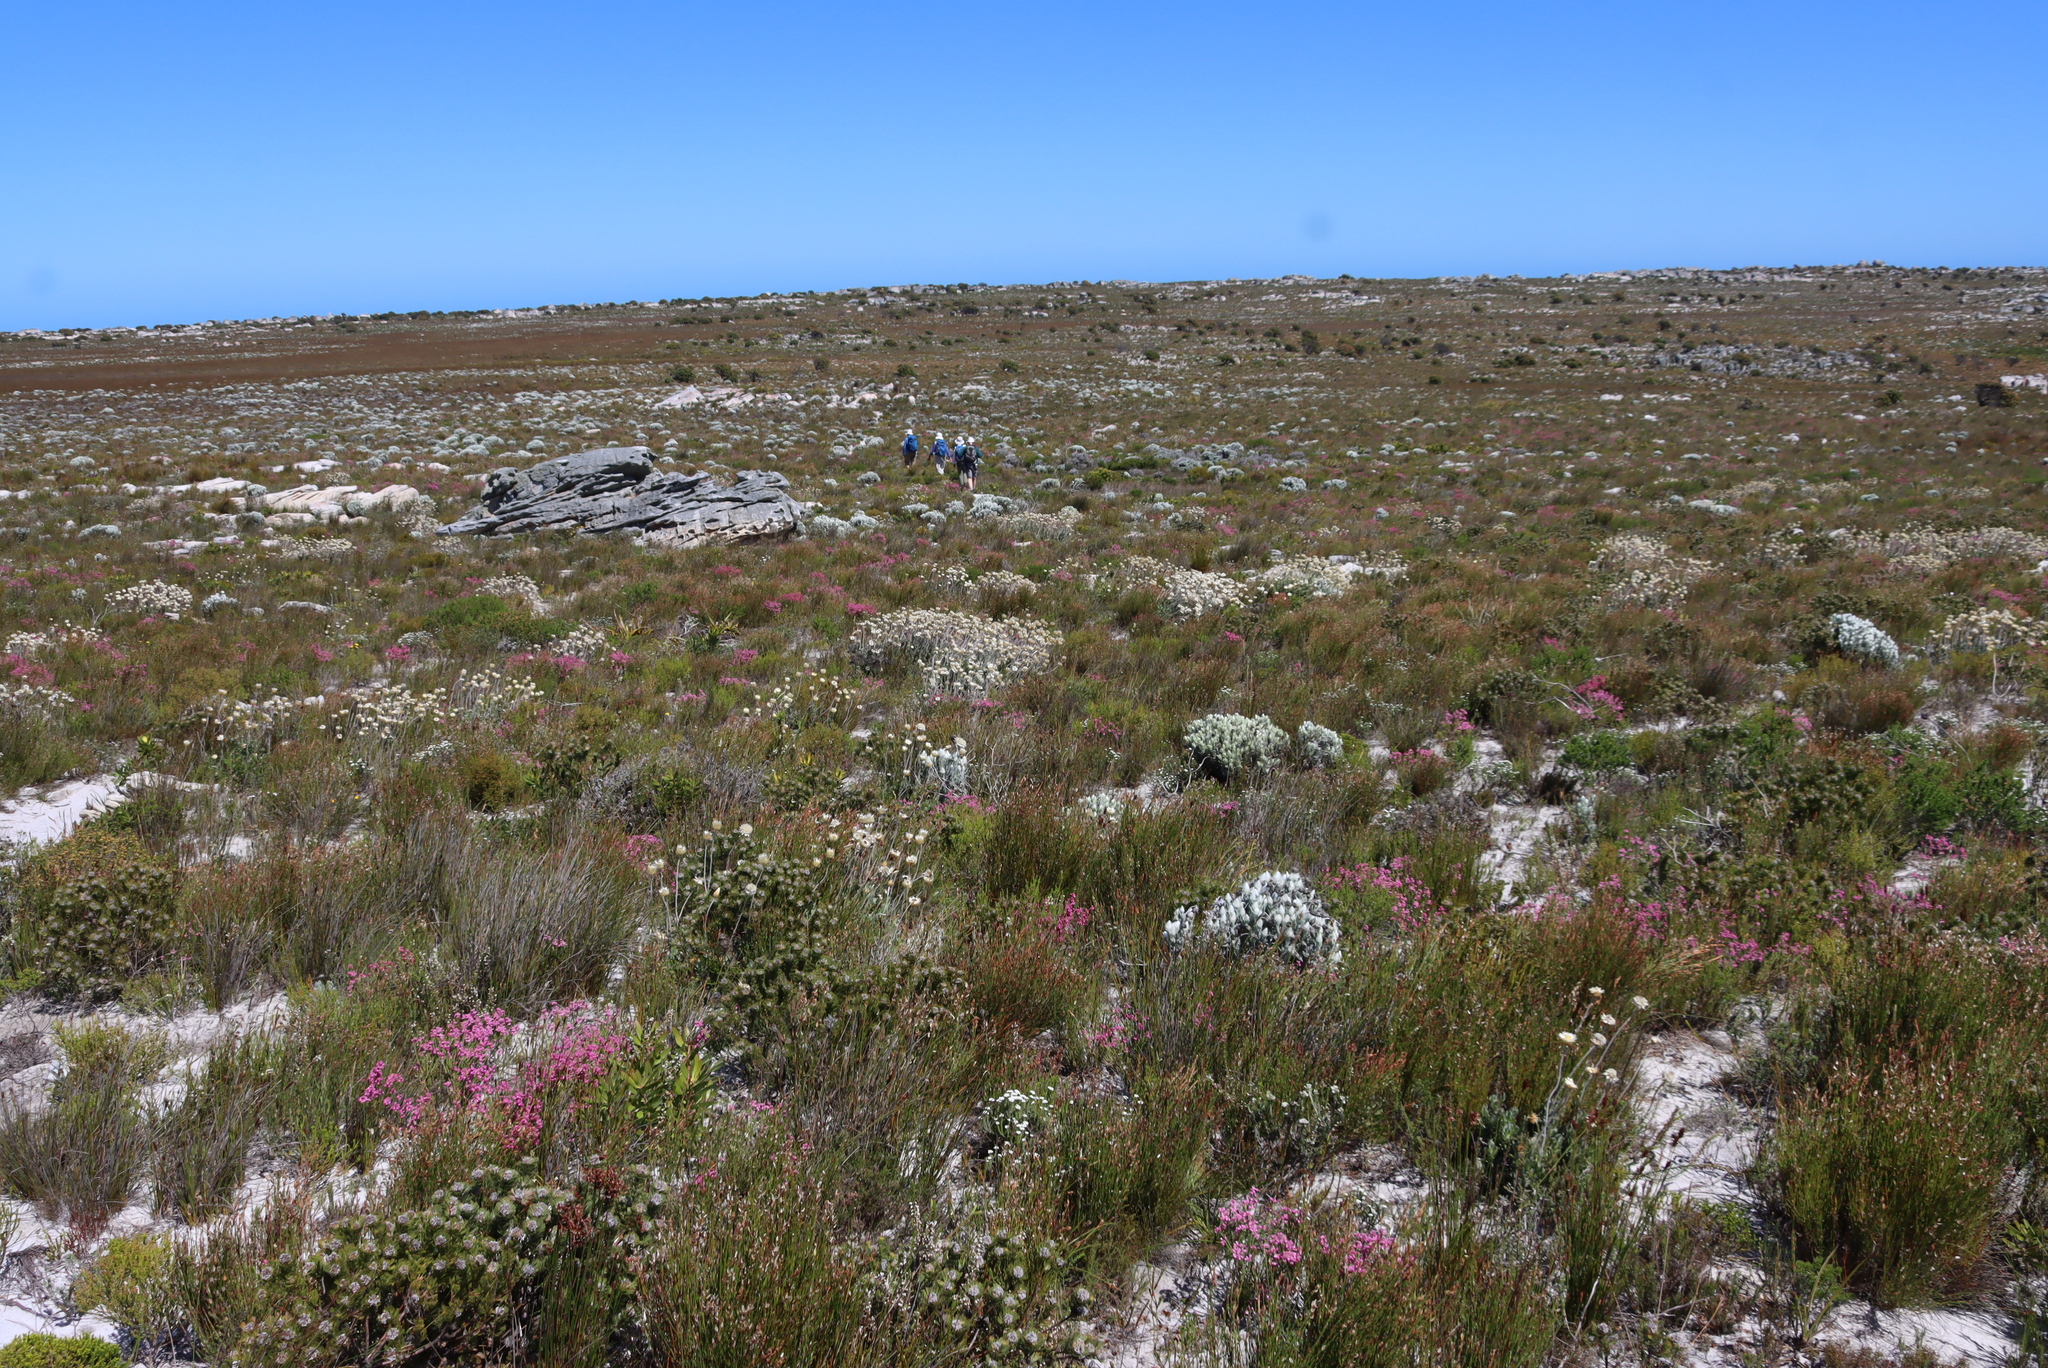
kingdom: Plantae
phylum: Tracheophyta
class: Magnoliopsida
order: Asterales
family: Asteraceae
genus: Syncarpha
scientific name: Syncarpha vestita
